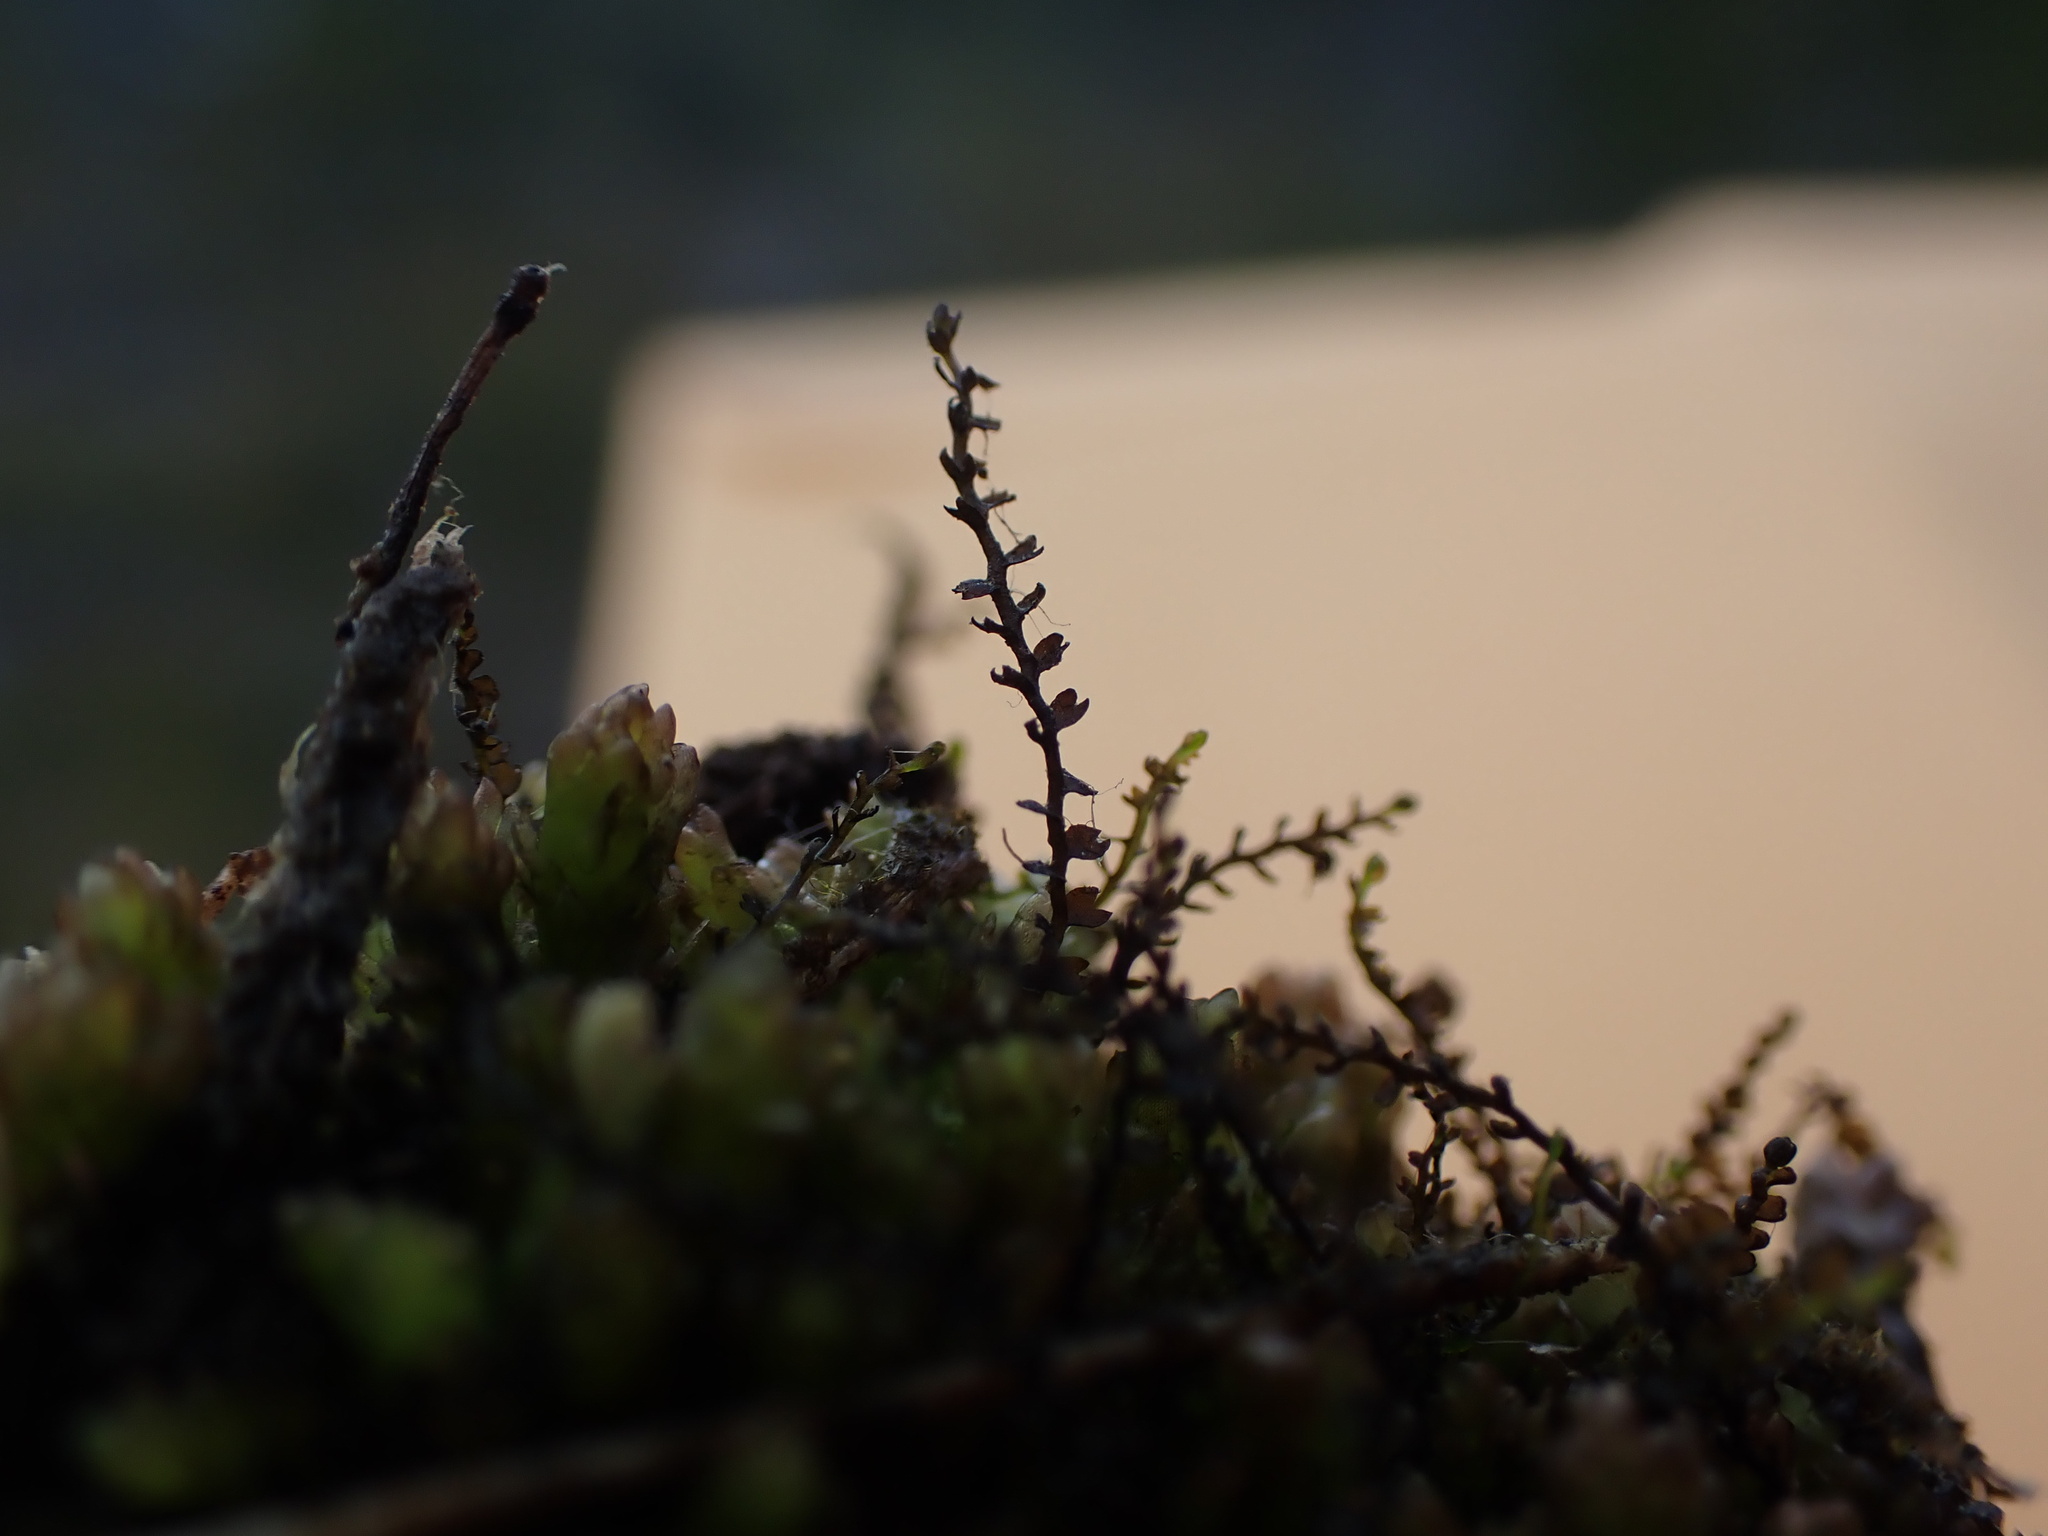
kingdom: Plantae
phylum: Marchantiophyta
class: Jungermanniopsida
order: Jungermanniales
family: Anastrophyllaceae
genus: Gymnocolea
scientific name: Gymnocolea inflata
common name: Inflated notchwort
